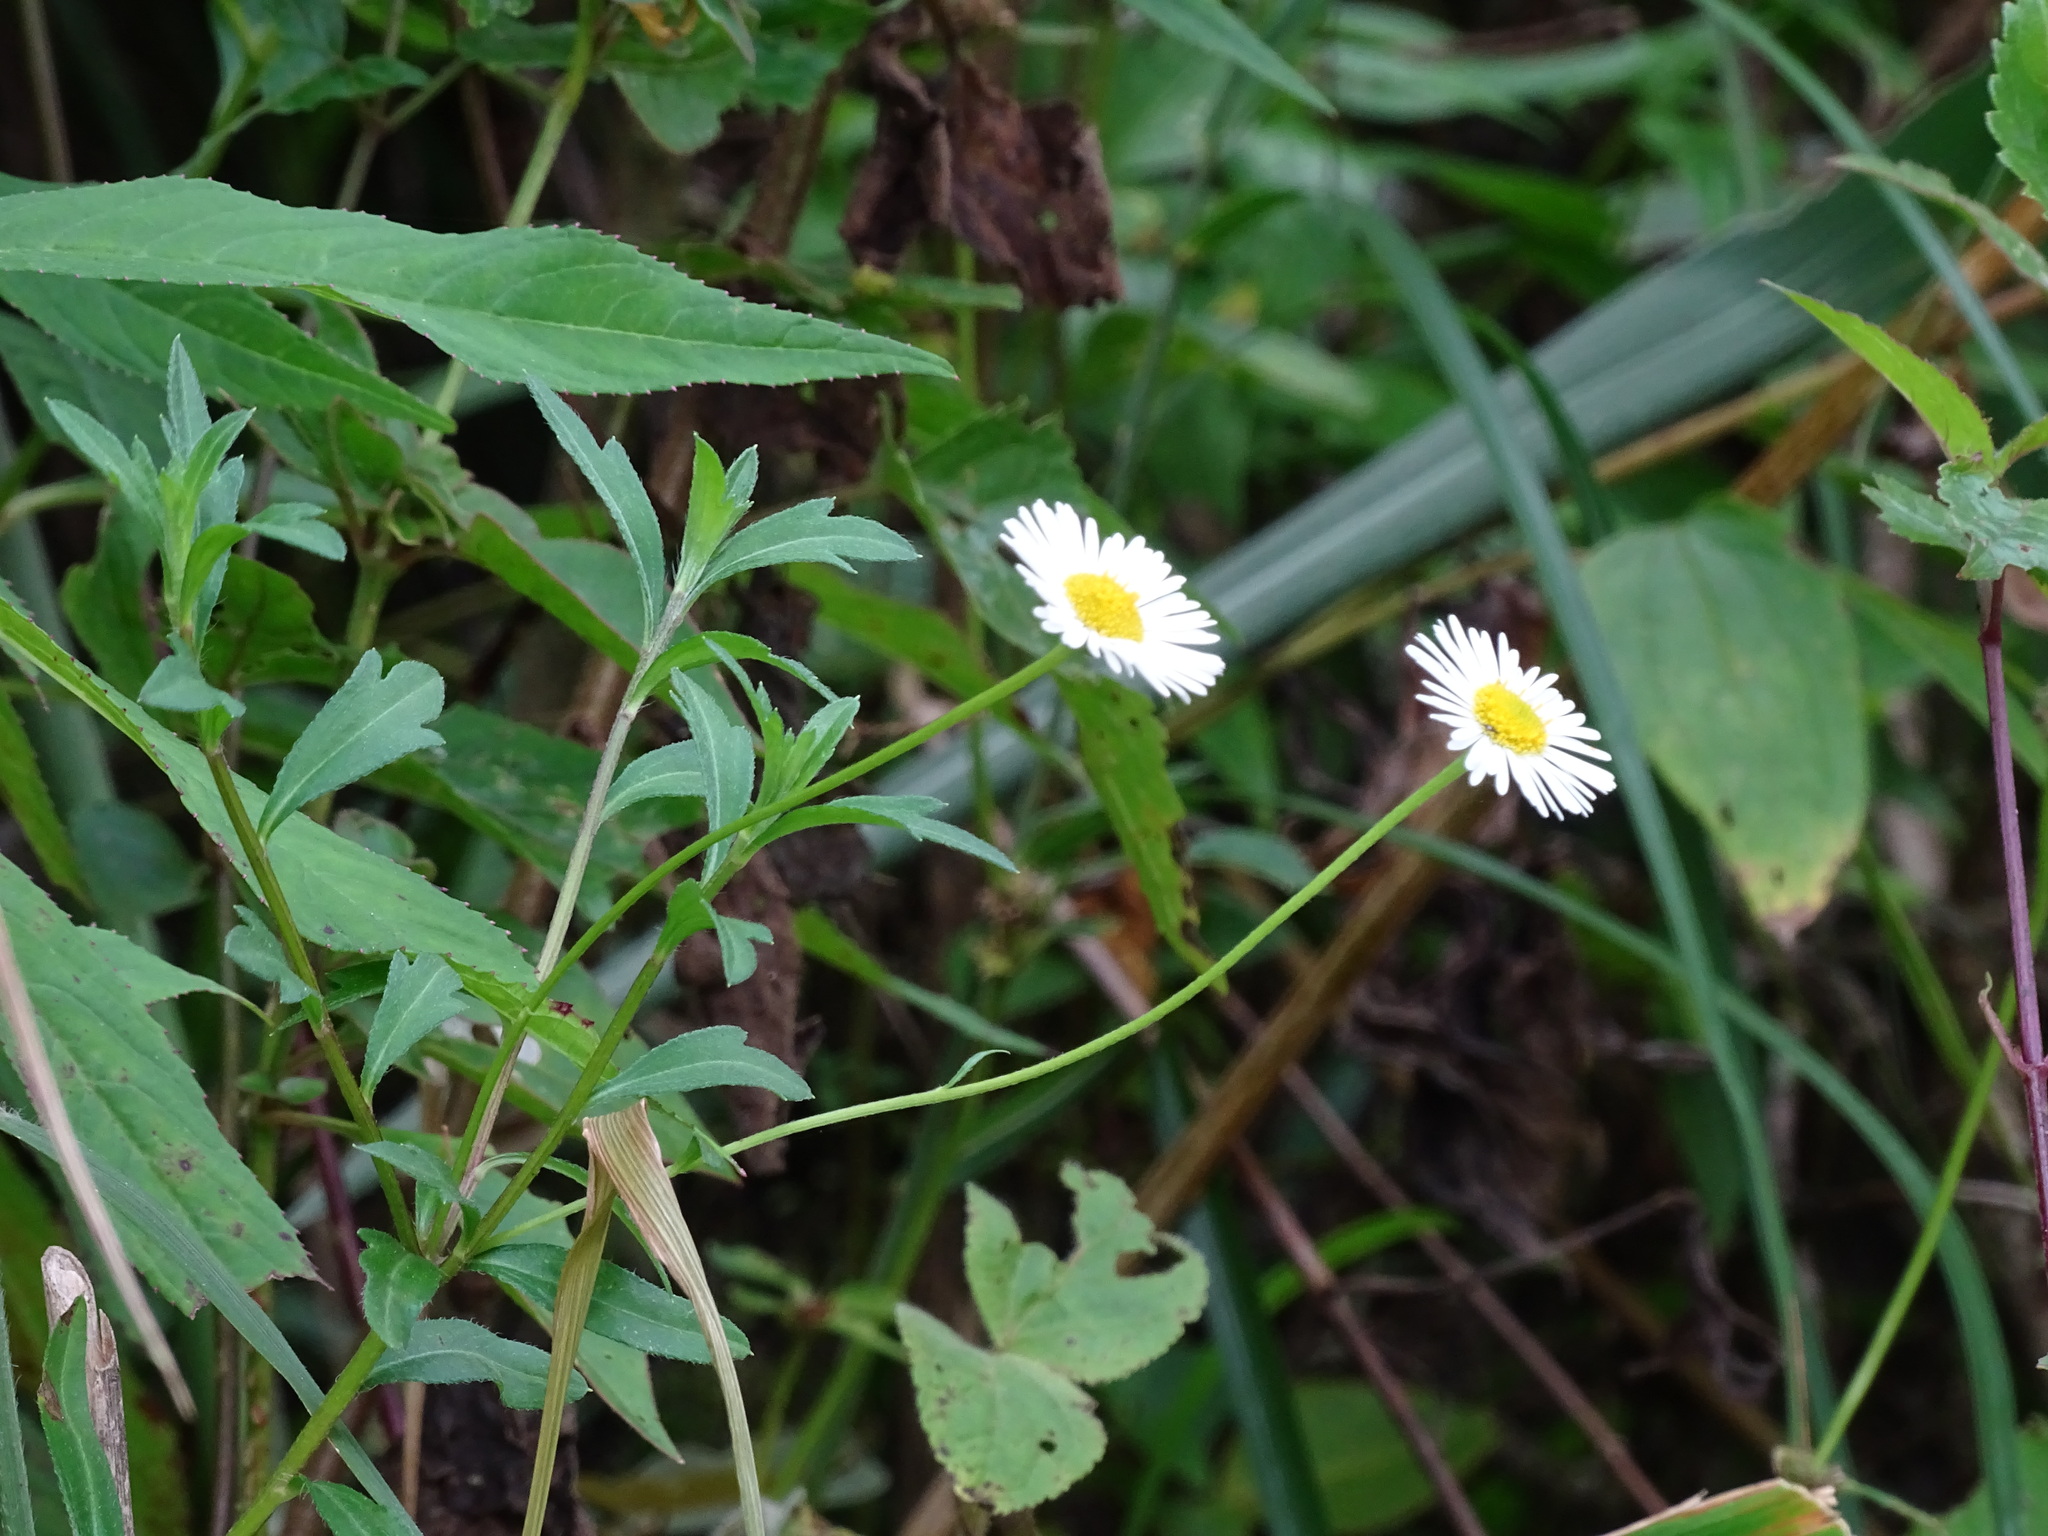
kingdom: Plantae
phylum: Tracheophyta
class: Magnoliopsida
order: Asterales
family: Asteraceae
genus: Erigeron
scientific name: Erigeron karvinskianus
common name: Mexican fleabane
